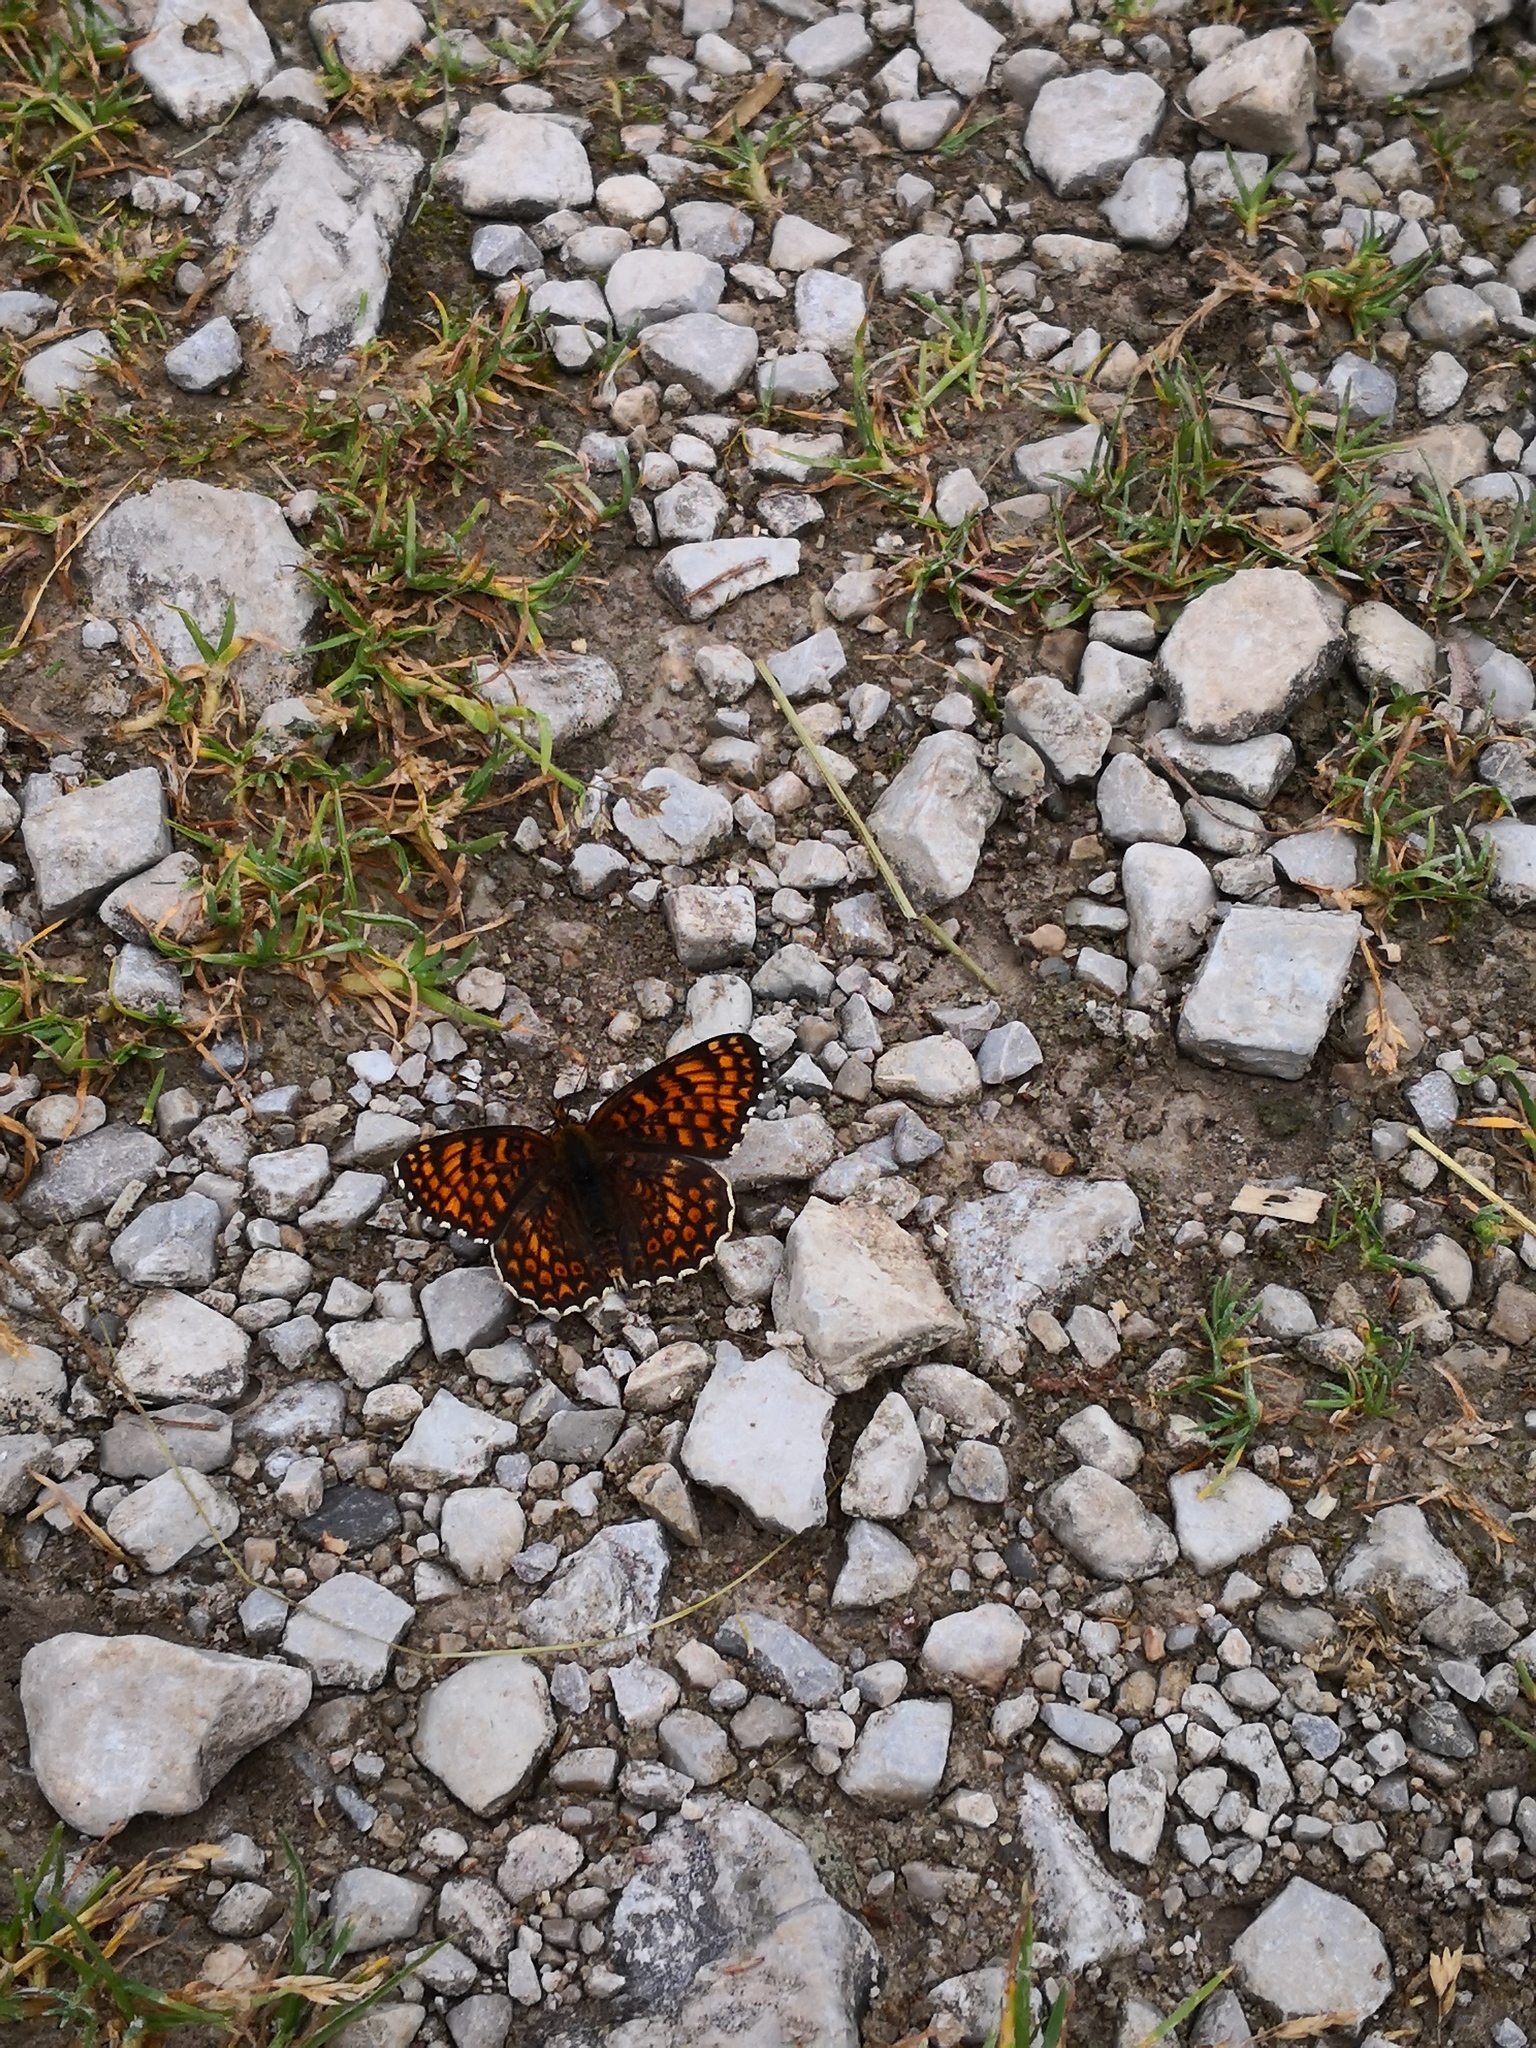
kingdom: Animalia
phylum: Arthropoda
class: Insecta
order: Lepidoptera
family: Nymphalidae
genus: Melitaea
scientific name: Melitaea phoebe
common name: Knapweed fritillary
